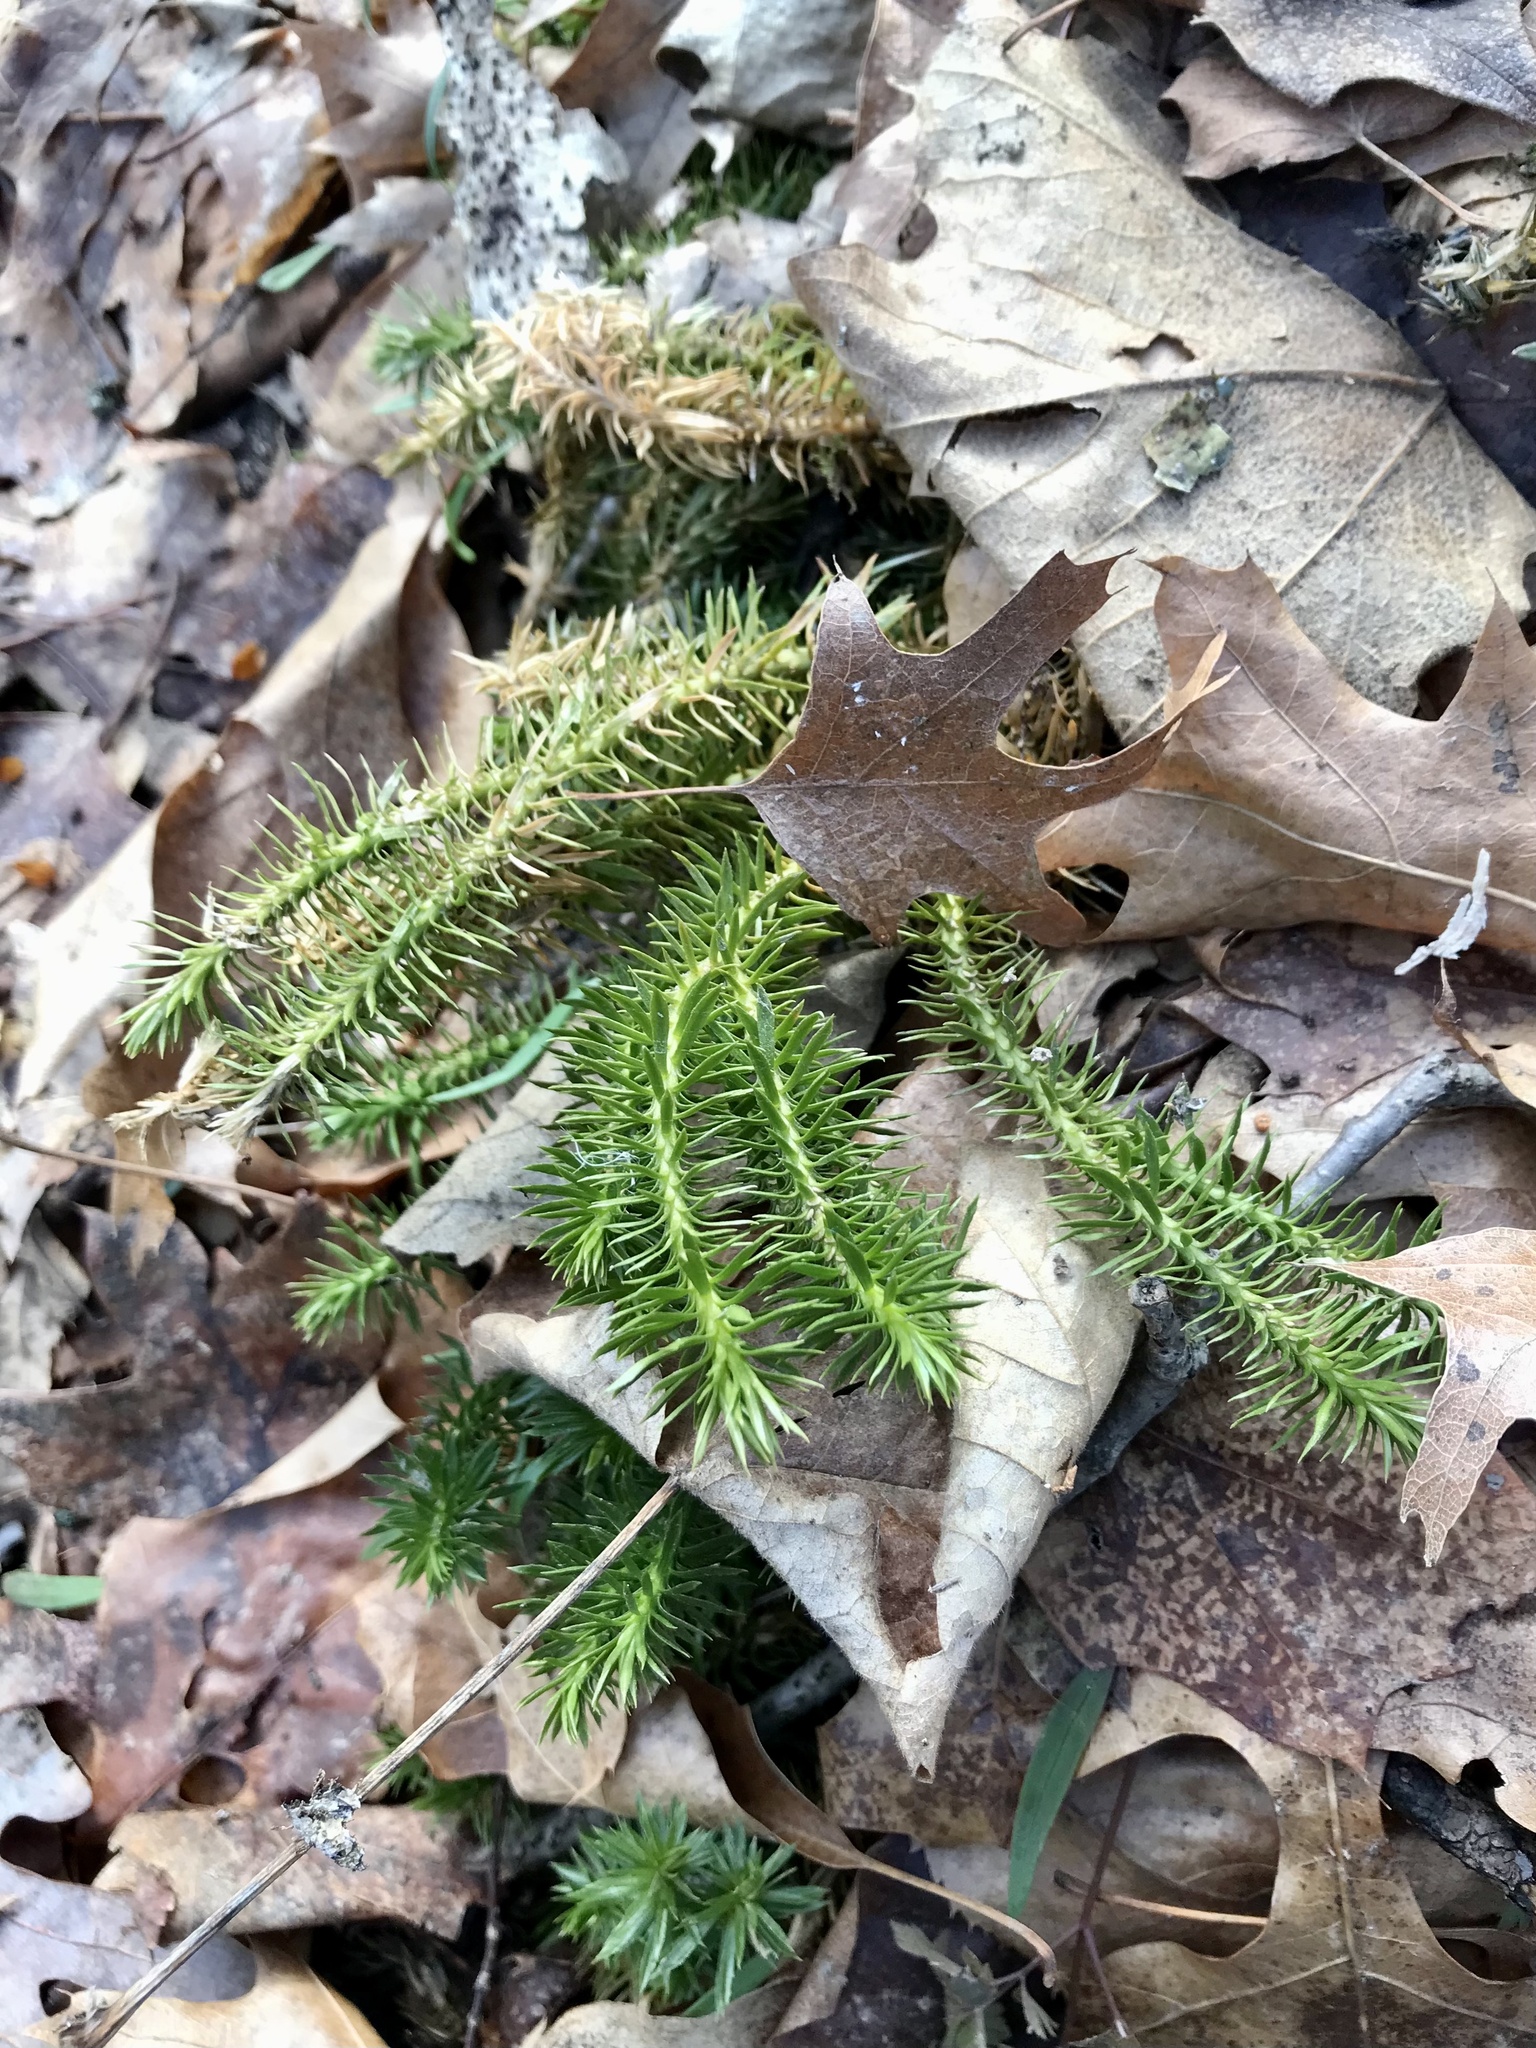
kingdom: Plantae
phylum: Tracheophyta
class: Lycopodiopsida
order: Lycopodiales
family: Lycopodiaceae
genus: Huperzia
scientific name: Huperzia lucidula
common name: Shining clubmoss
